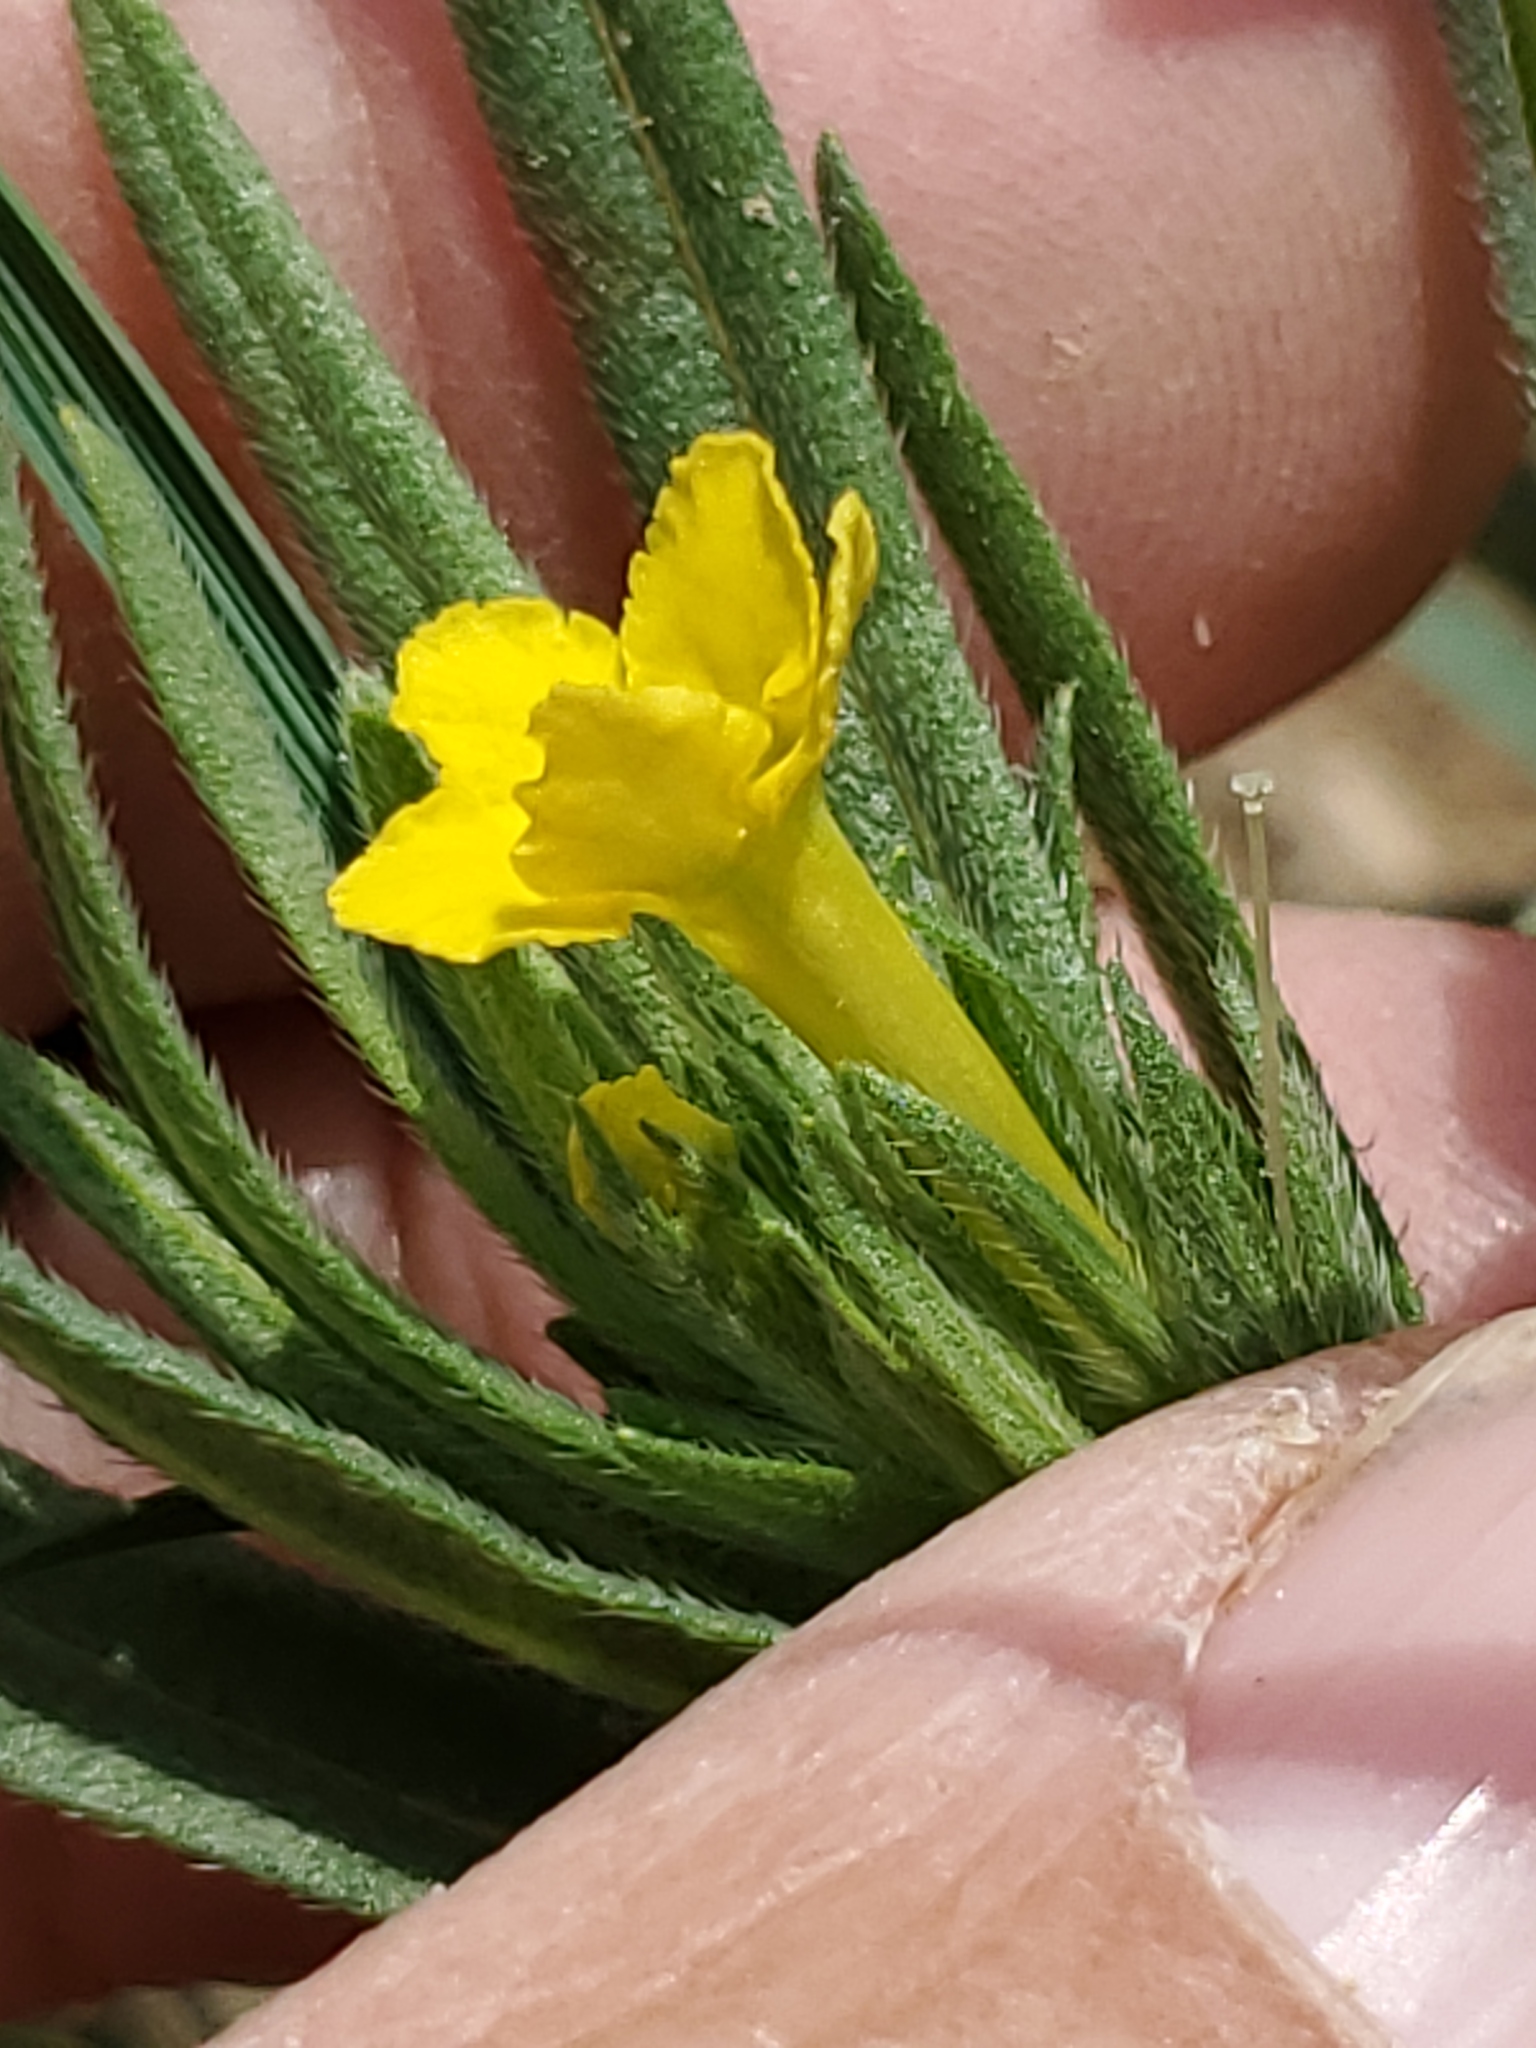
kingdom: Plantae
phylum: Tracheophyta
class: Magnoliopsida
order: Boraginales
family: Boraginaceae
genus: Lithospermum
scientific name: Lithospermum incisum
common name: Fringed gromwell
